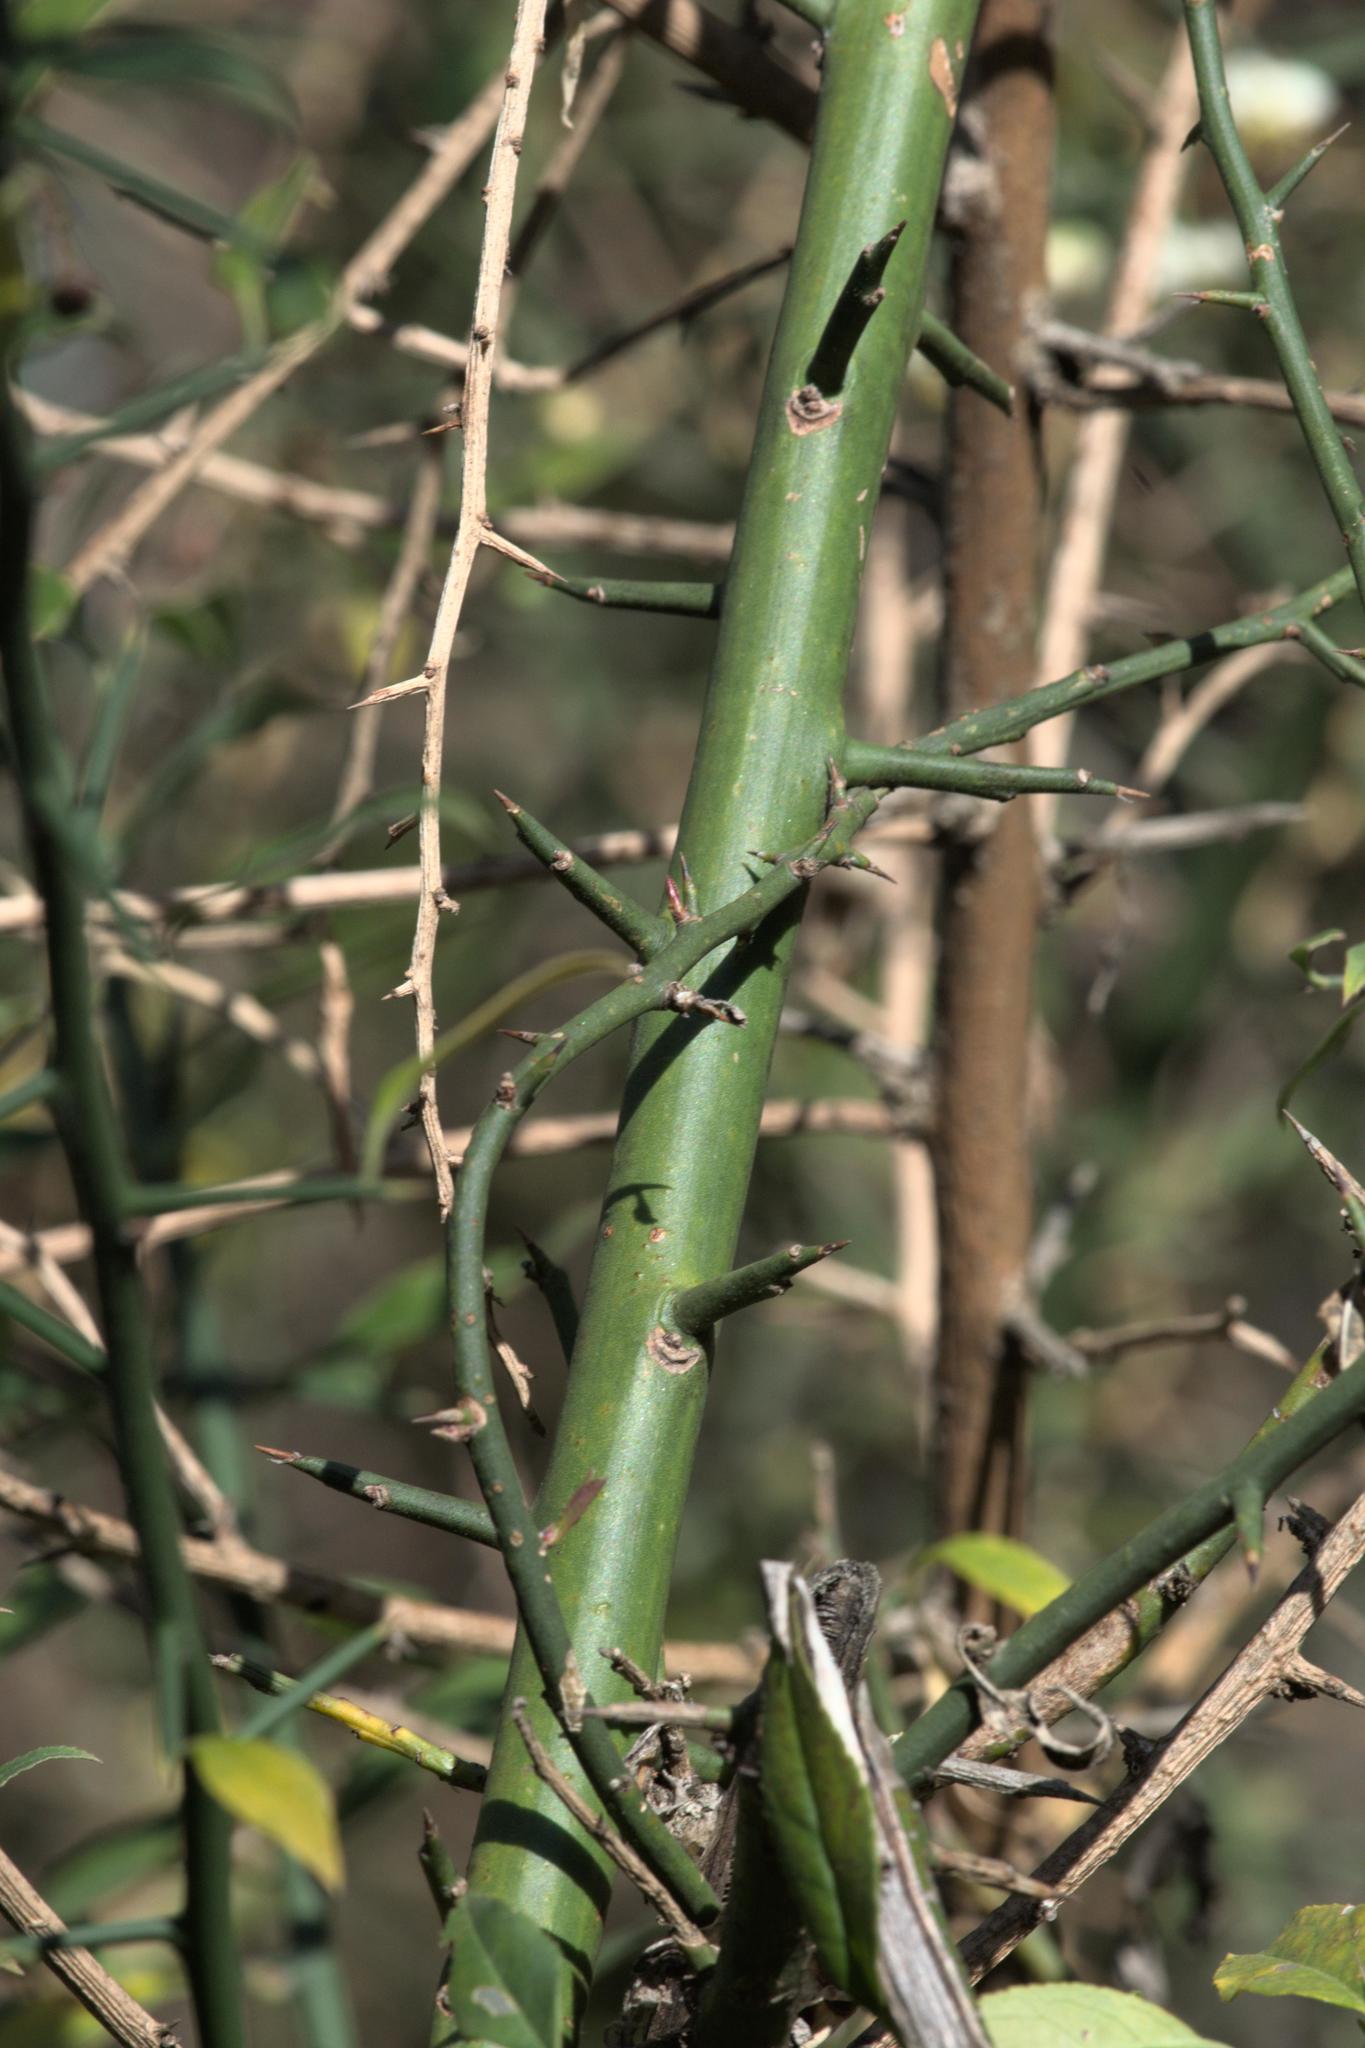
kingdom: Plantae
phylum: Tracheophyta
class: Magnoliopsida
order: Rosales
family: Rosaceae
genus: Prinsepia
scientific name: Prinsepia utilis
